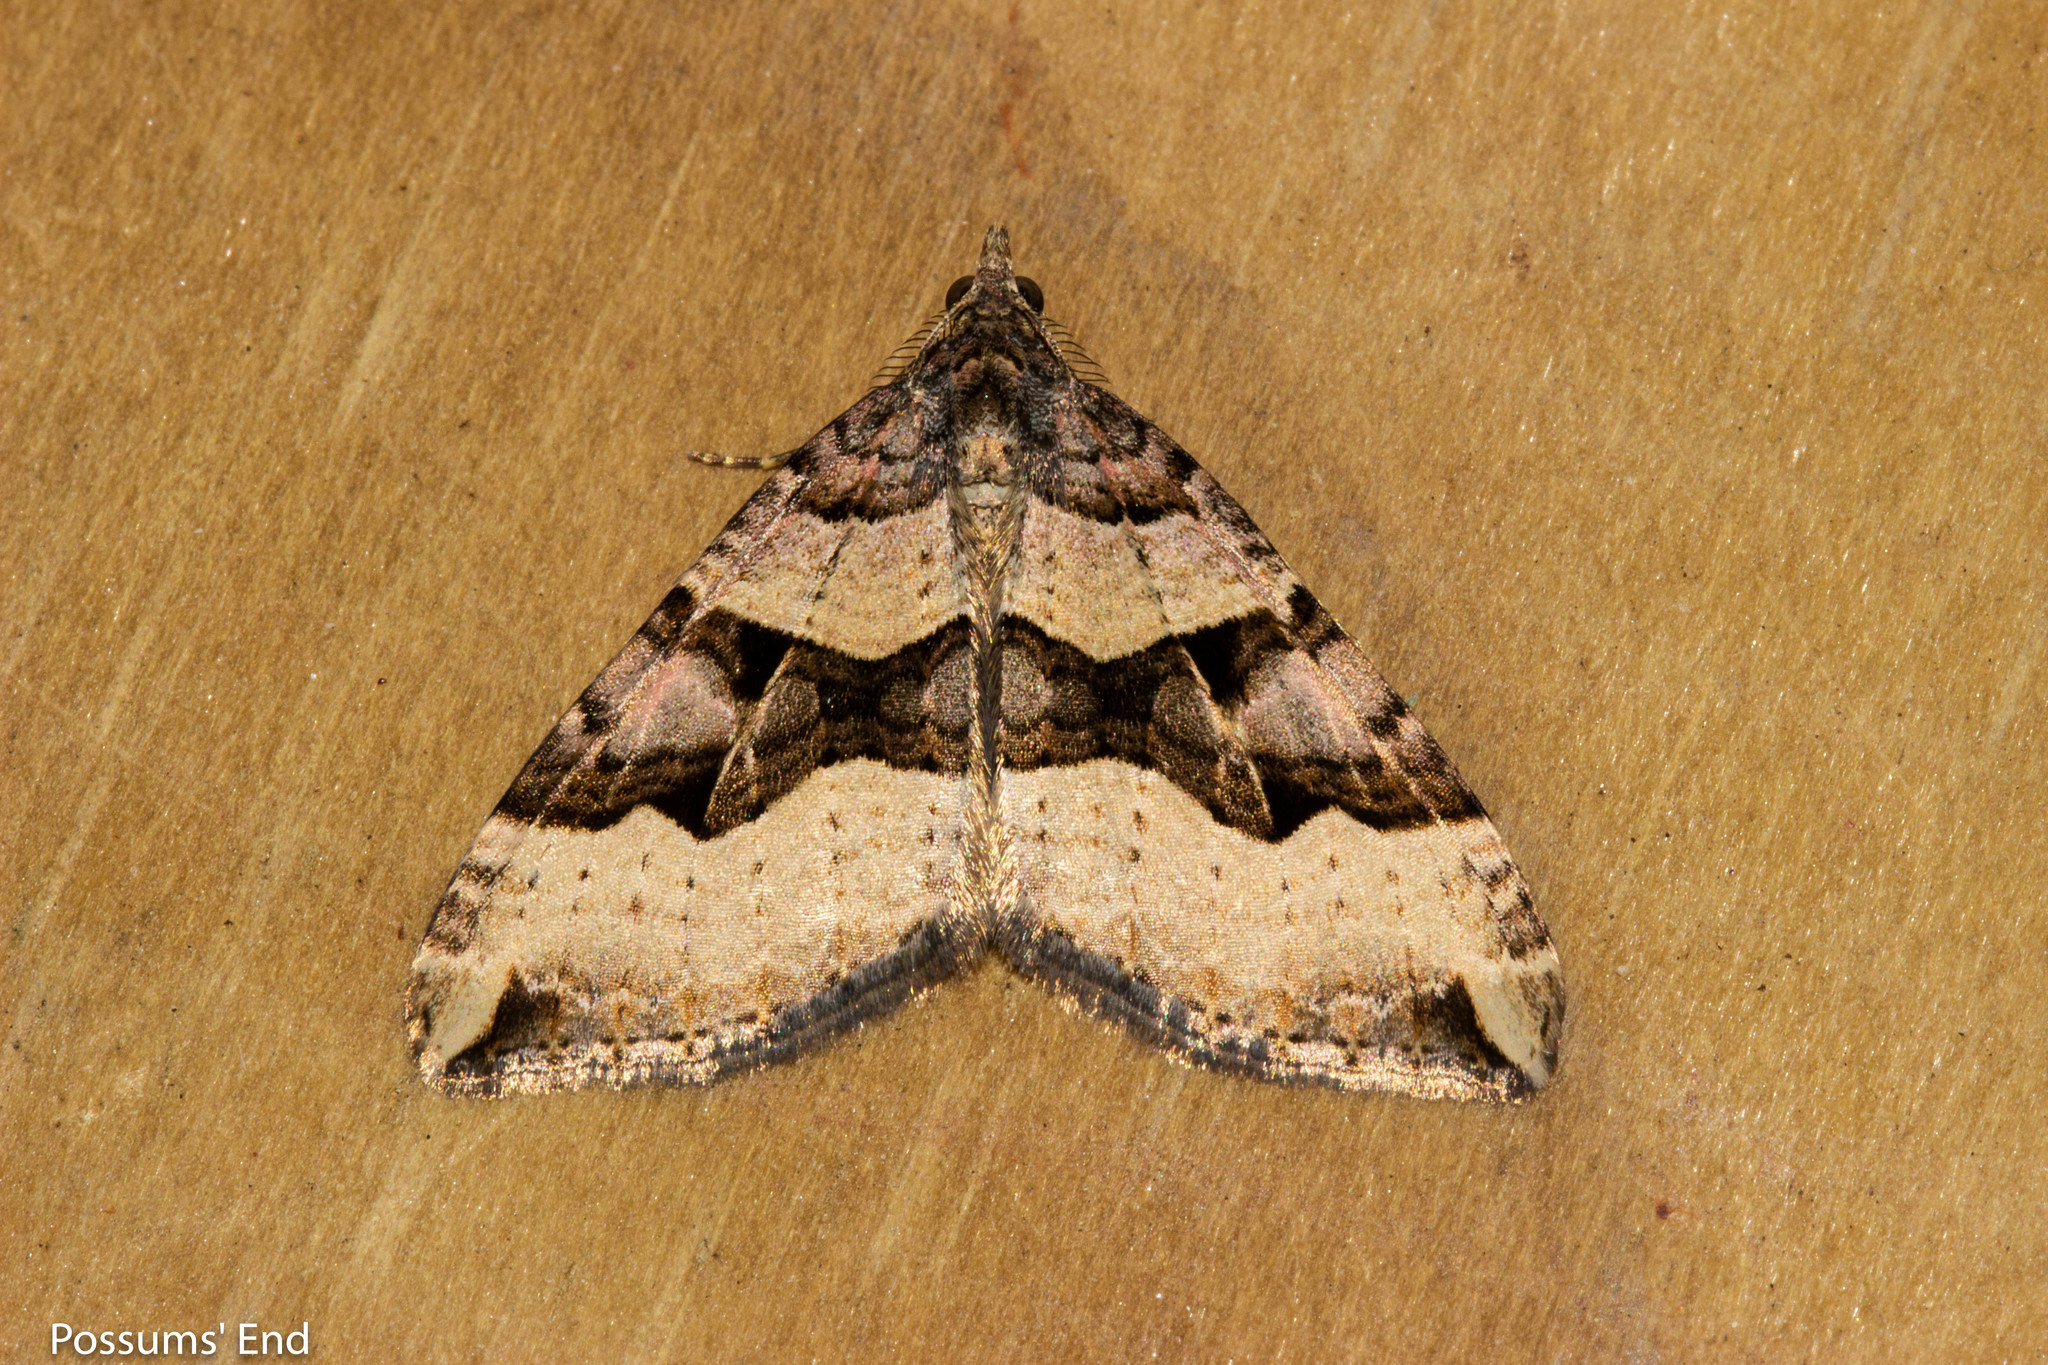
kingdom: Animalia
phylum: Arthropoda
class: Insecta
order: Lepidoptera
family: Geometridae
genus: Xanthorhoe
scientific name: Xanthorhoe semifissata
